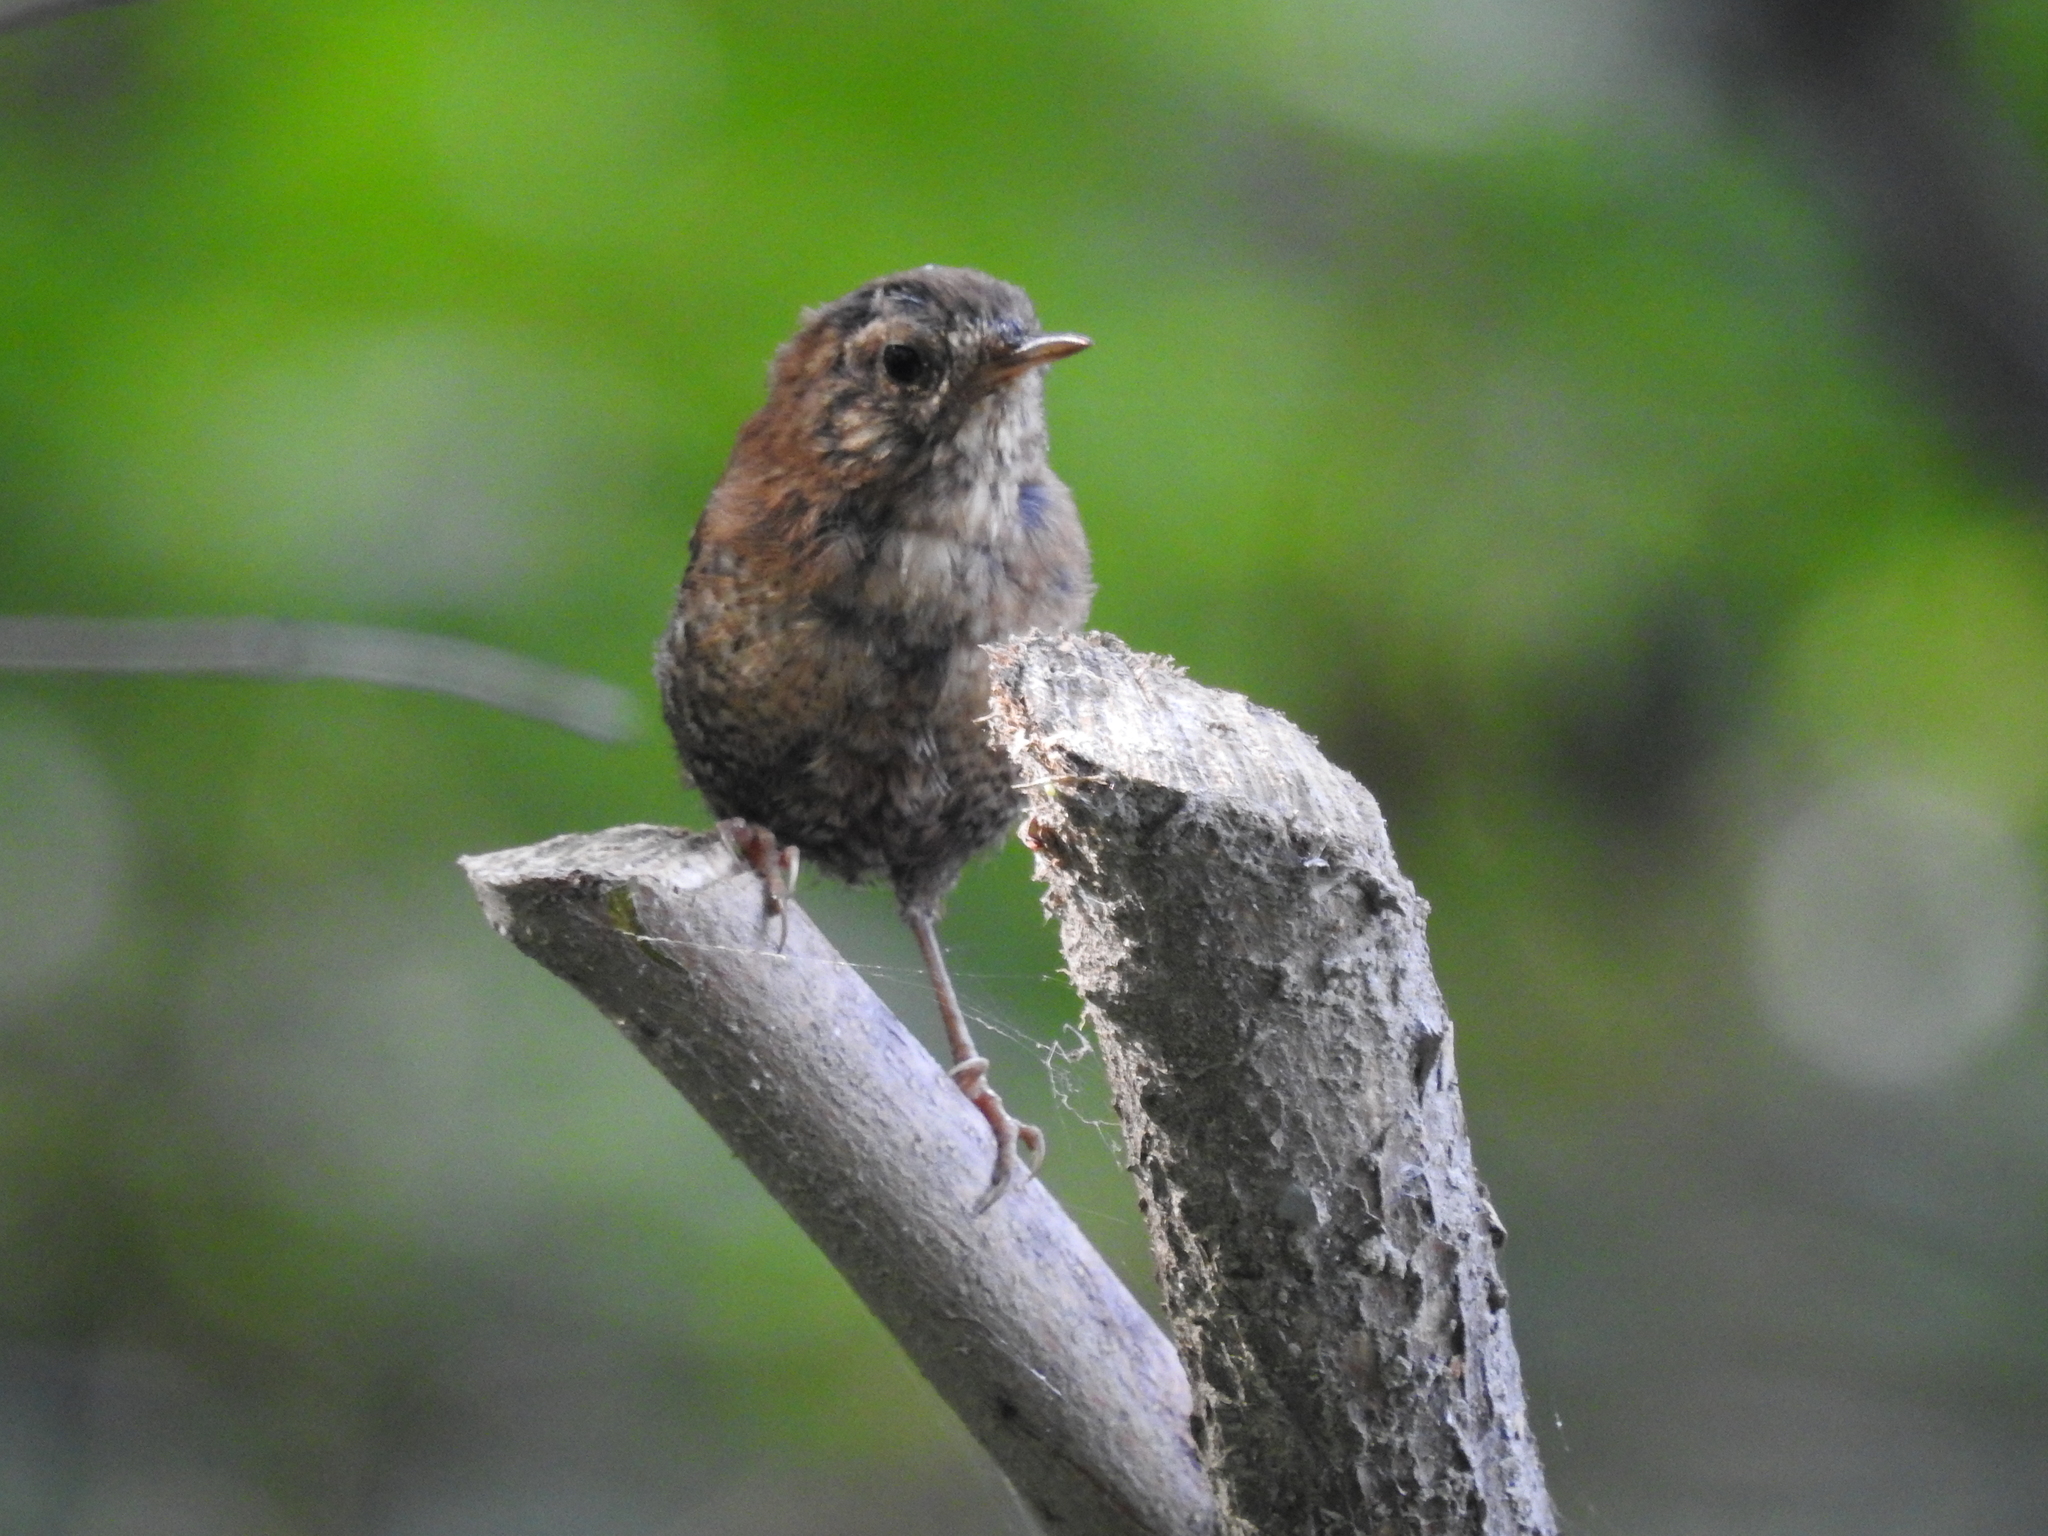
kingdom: Animalia
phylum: Chordata
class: Aves
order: Passeriformes
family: Troglodytidae
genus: Troglodytes
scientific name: Troglodytes hiemalis
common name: Winter wren
